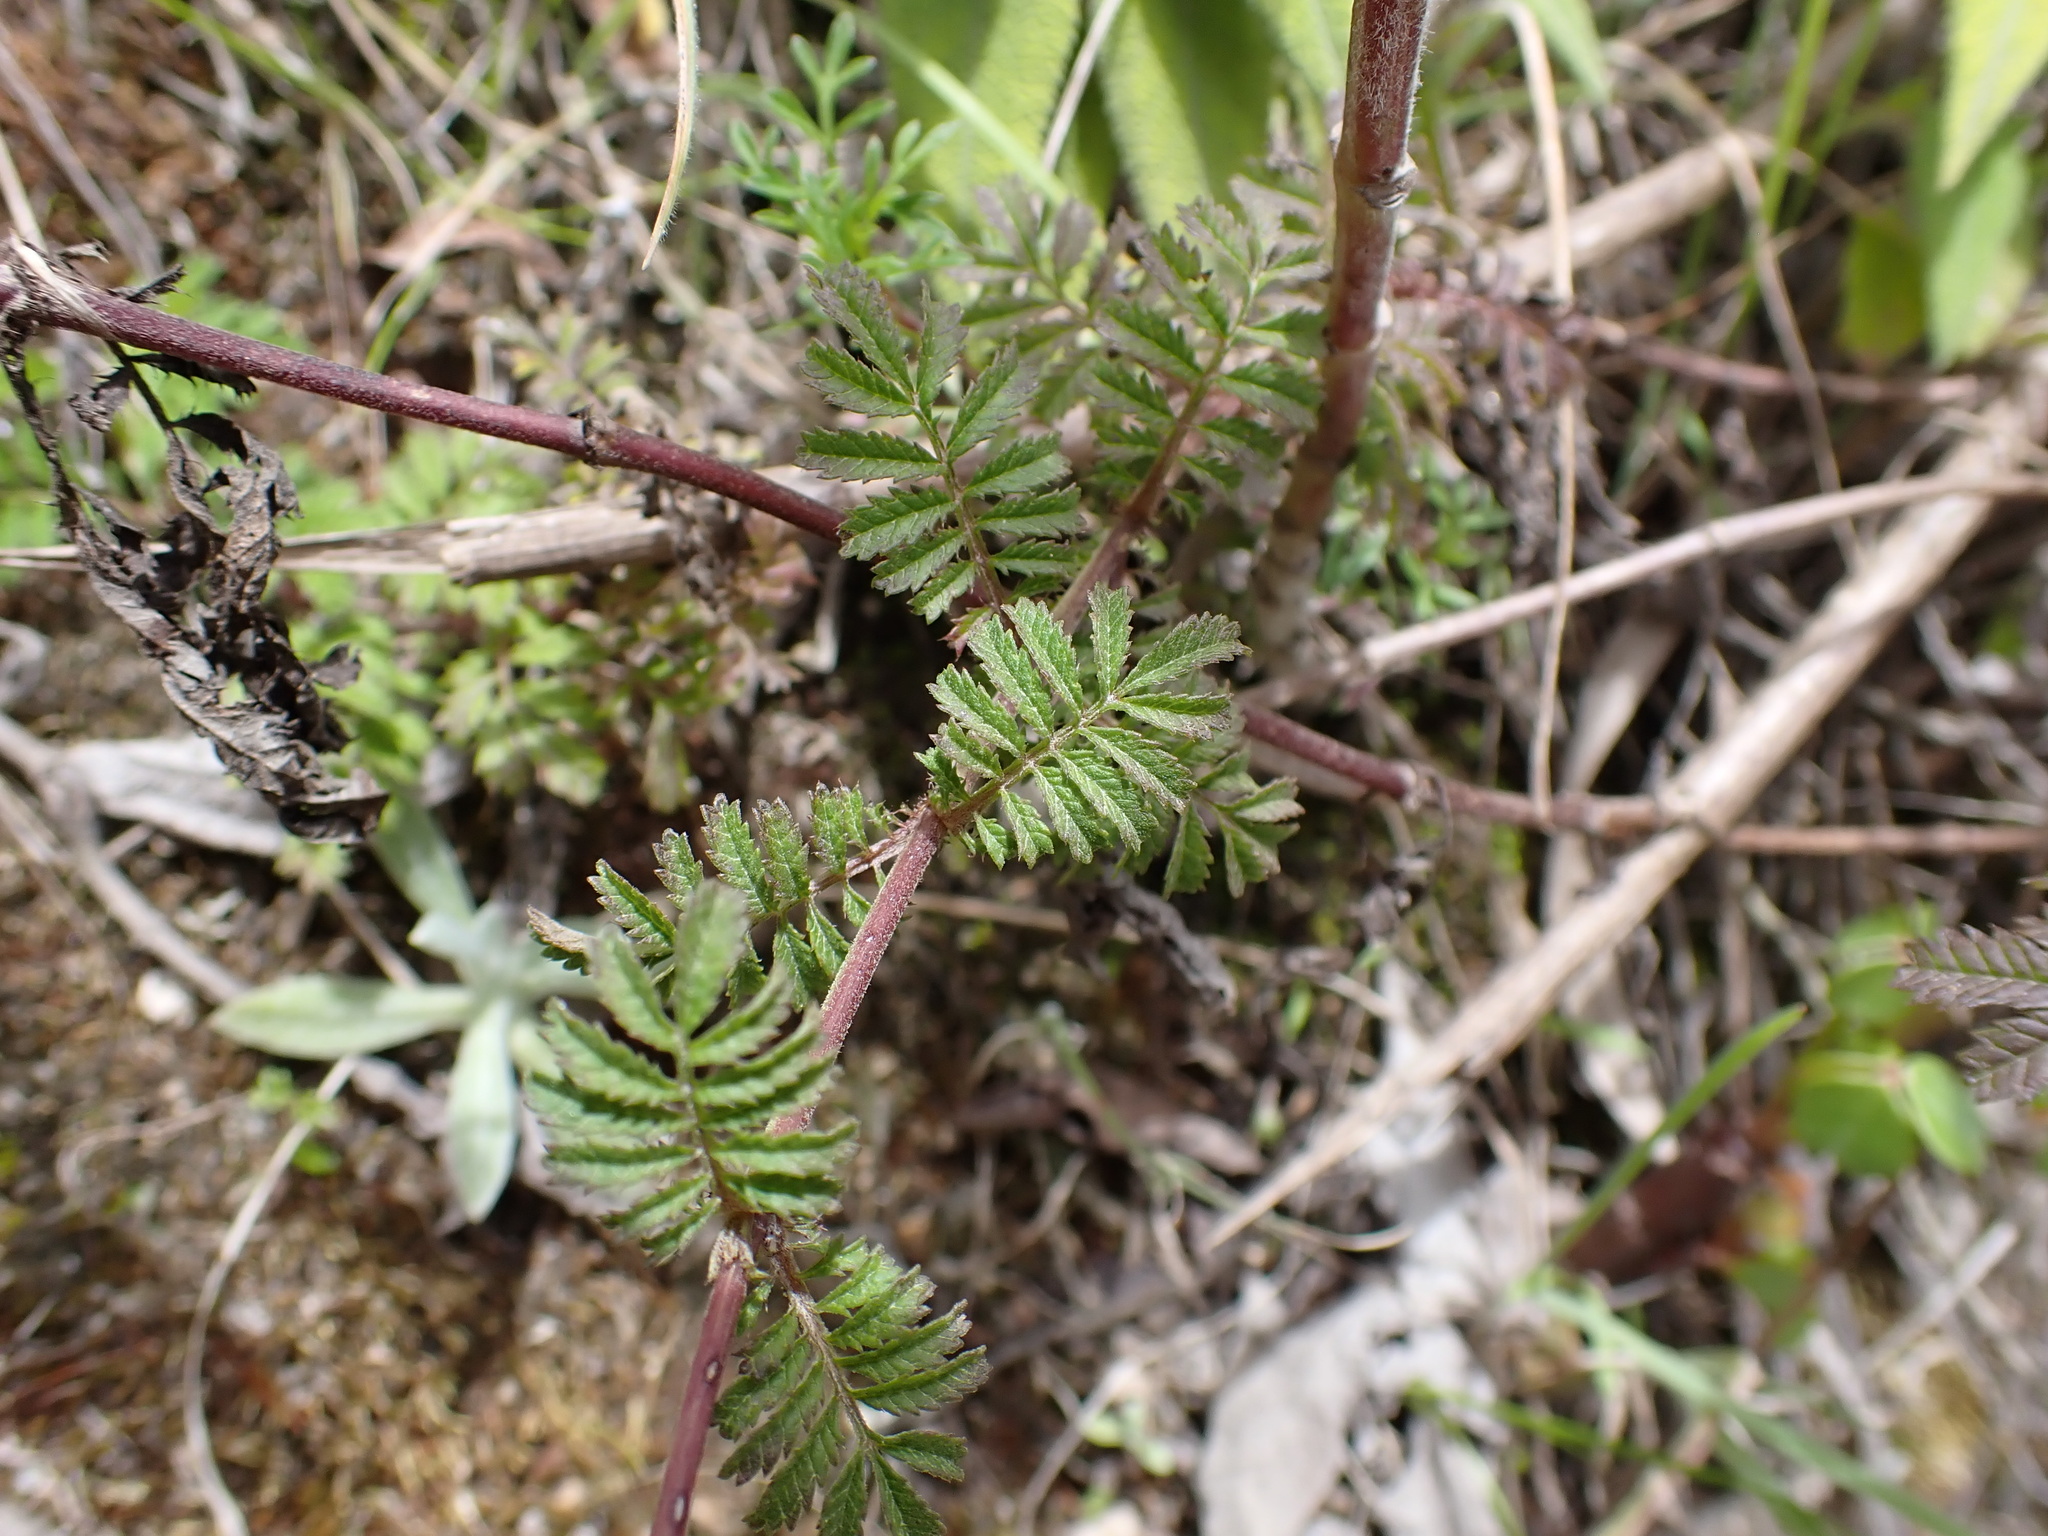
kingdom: Plantae
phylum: Tracheophyta
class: Magnoliopsida
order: Asterales
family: Asteraceae
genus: Tagetes
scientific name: Tagetes zypaquirensis
